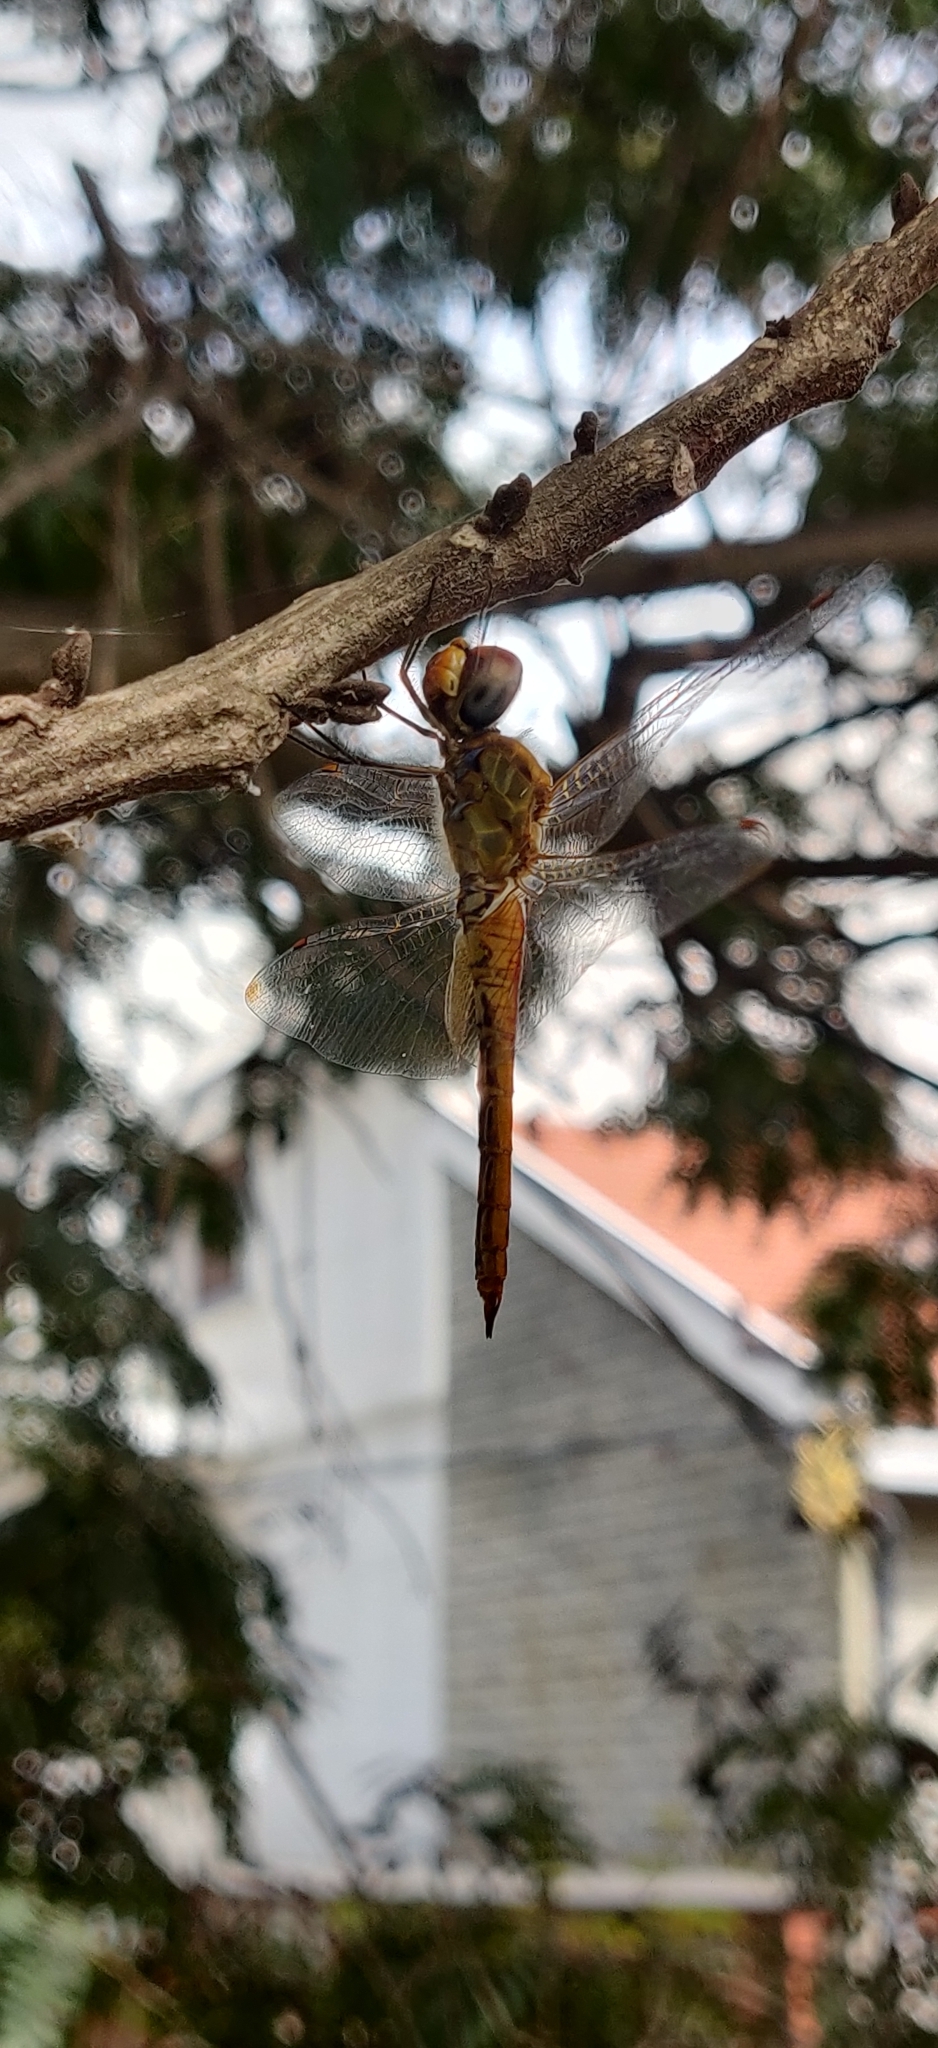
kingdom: Animalia
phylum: Arthropoda
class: Insecta
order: Odonata
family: Libellulidae
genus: Pantala
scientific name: Pantala flavescens
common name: Wandering glider
